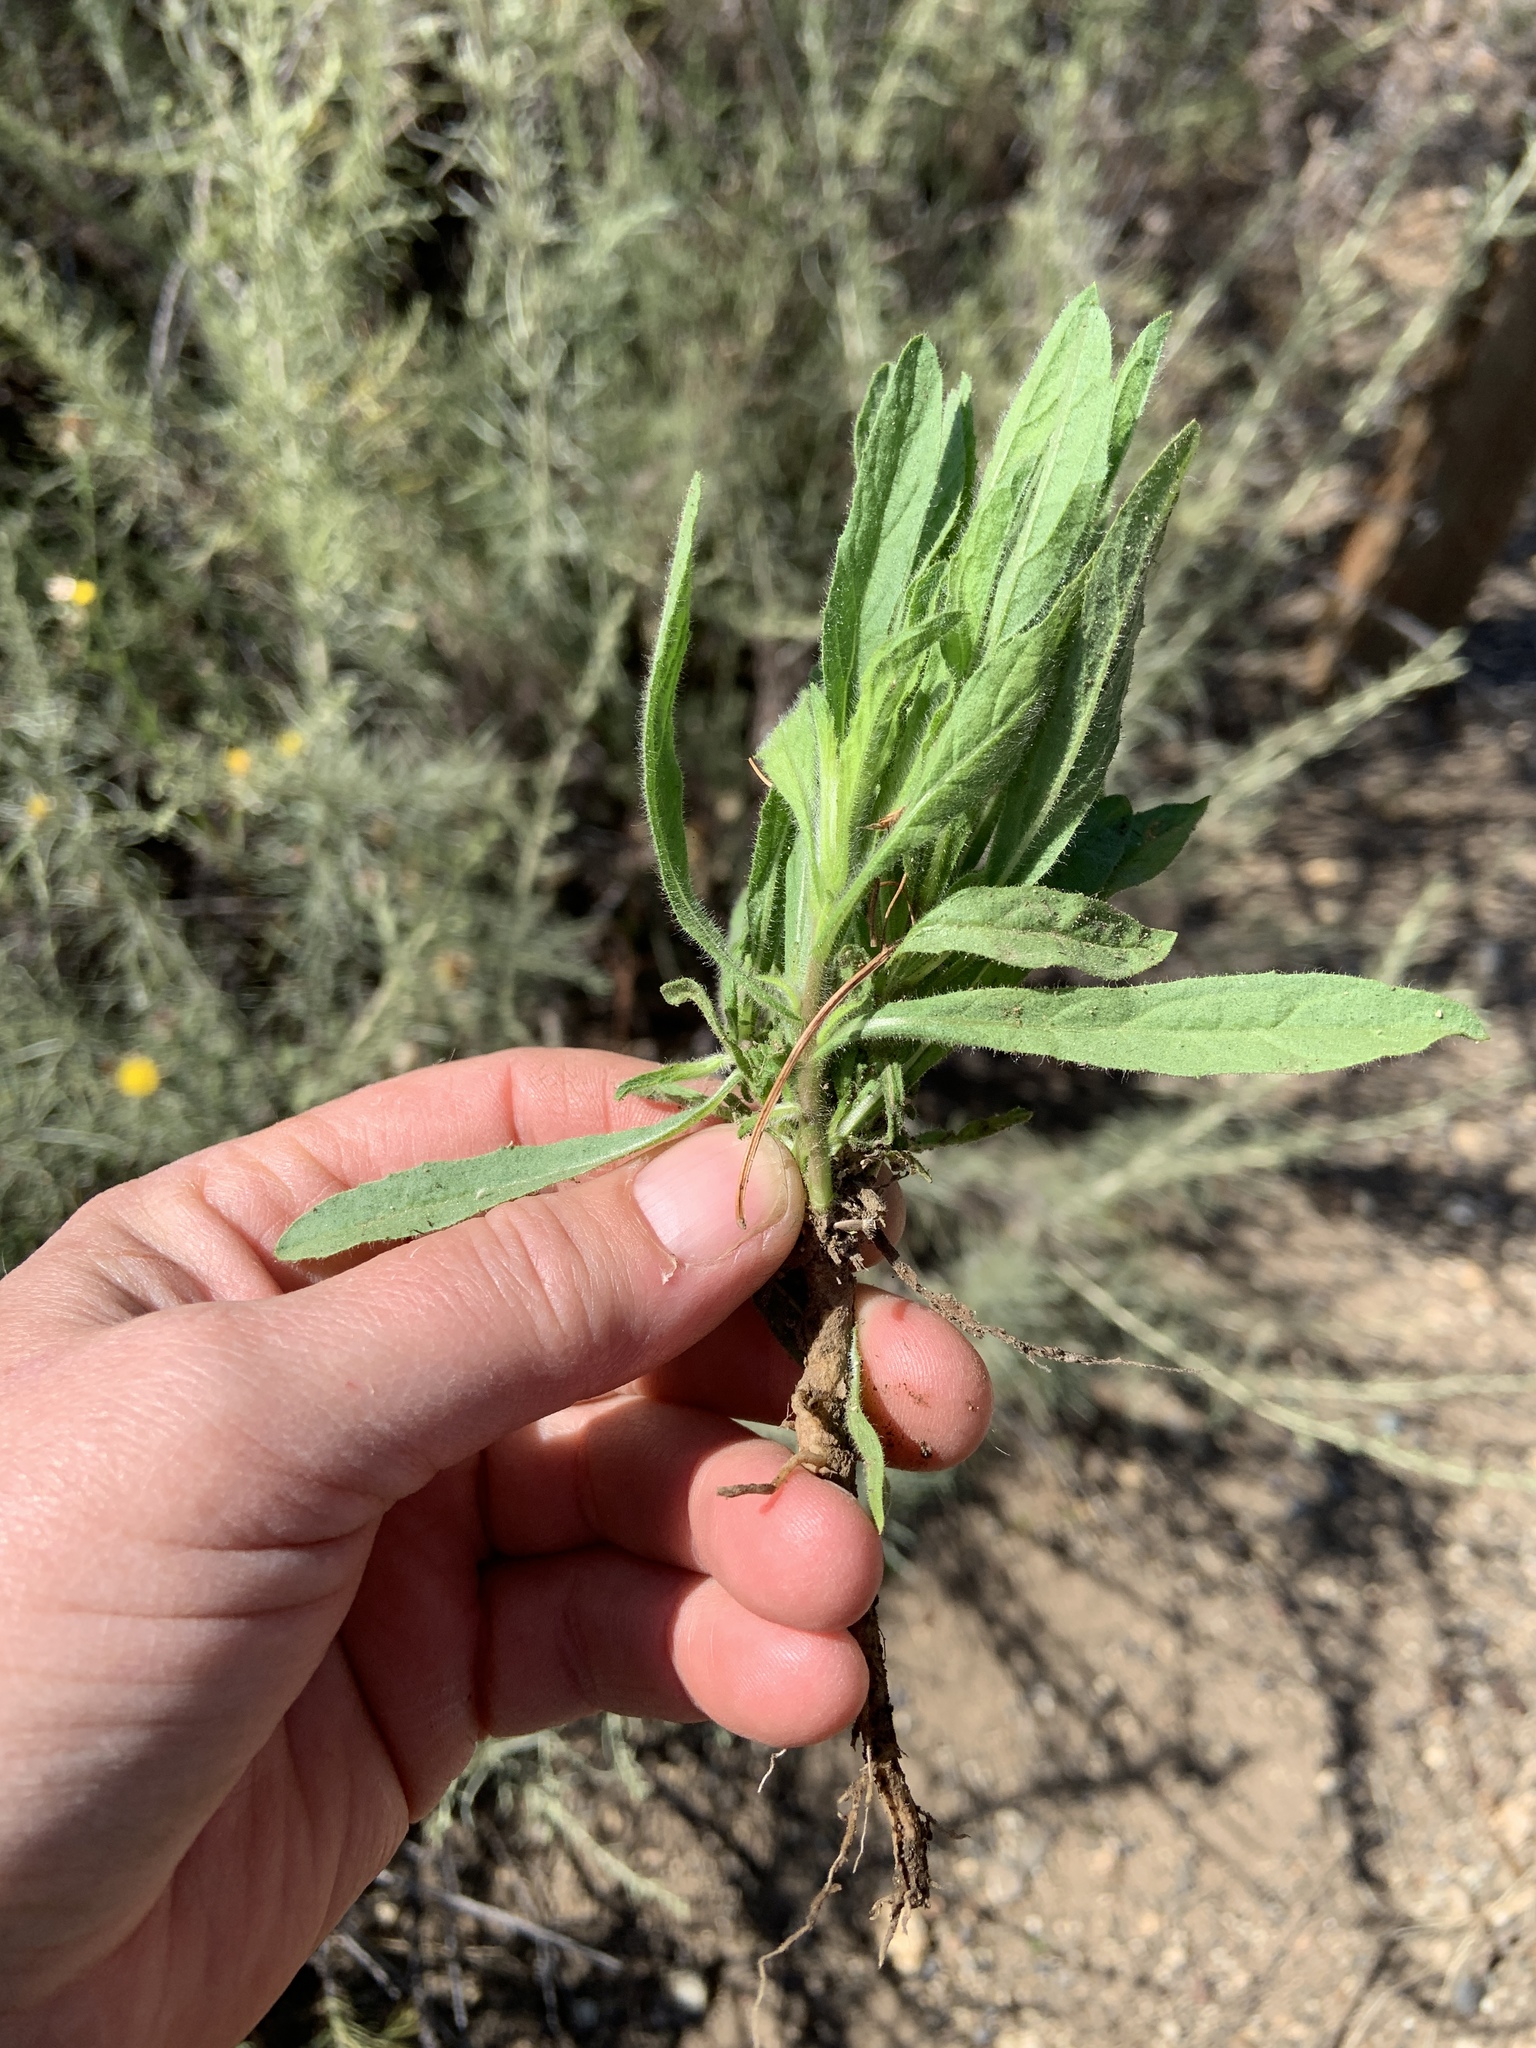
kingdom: Plantae
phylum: Tracheophyta
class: Magnoliopsida
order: Asterales
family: Asteraceae
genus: Dittrichia
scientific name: Dittrichia graveolens
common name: Stinking fleabane
